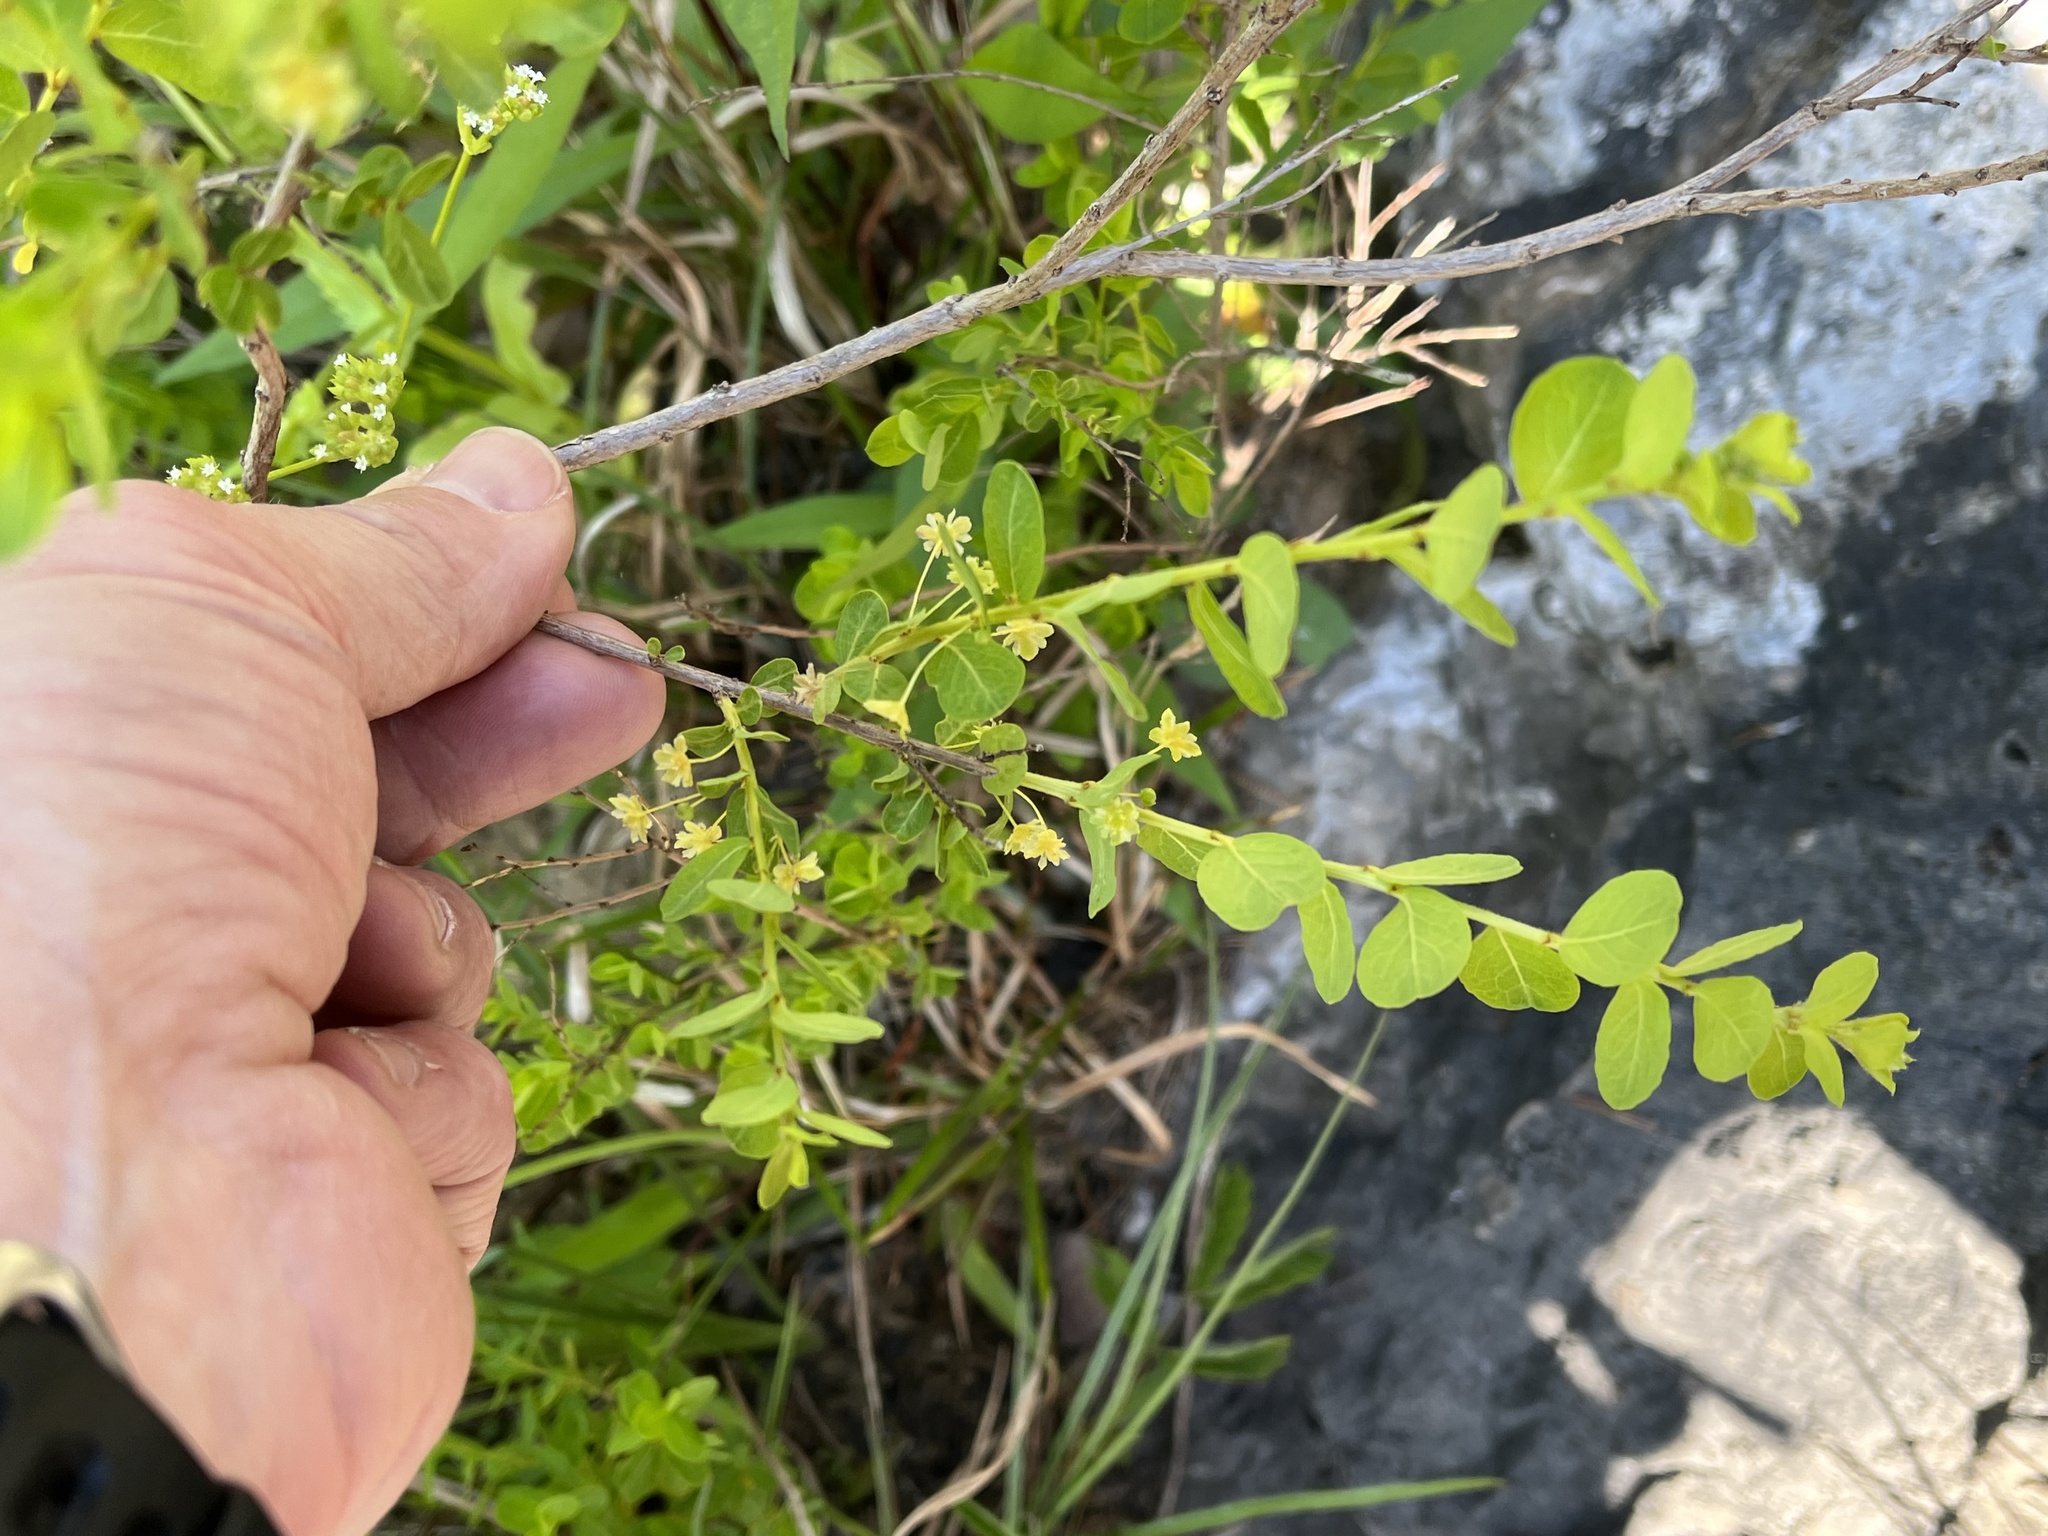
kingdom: Plantae
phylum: Tracheophyta
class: Magnoliopsida
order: Malpighiales
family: Phyllanthaceae
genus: Phyllanthopsis
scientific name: Phyllanthopsis phyllanthoides
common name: Missouri maidenbush
